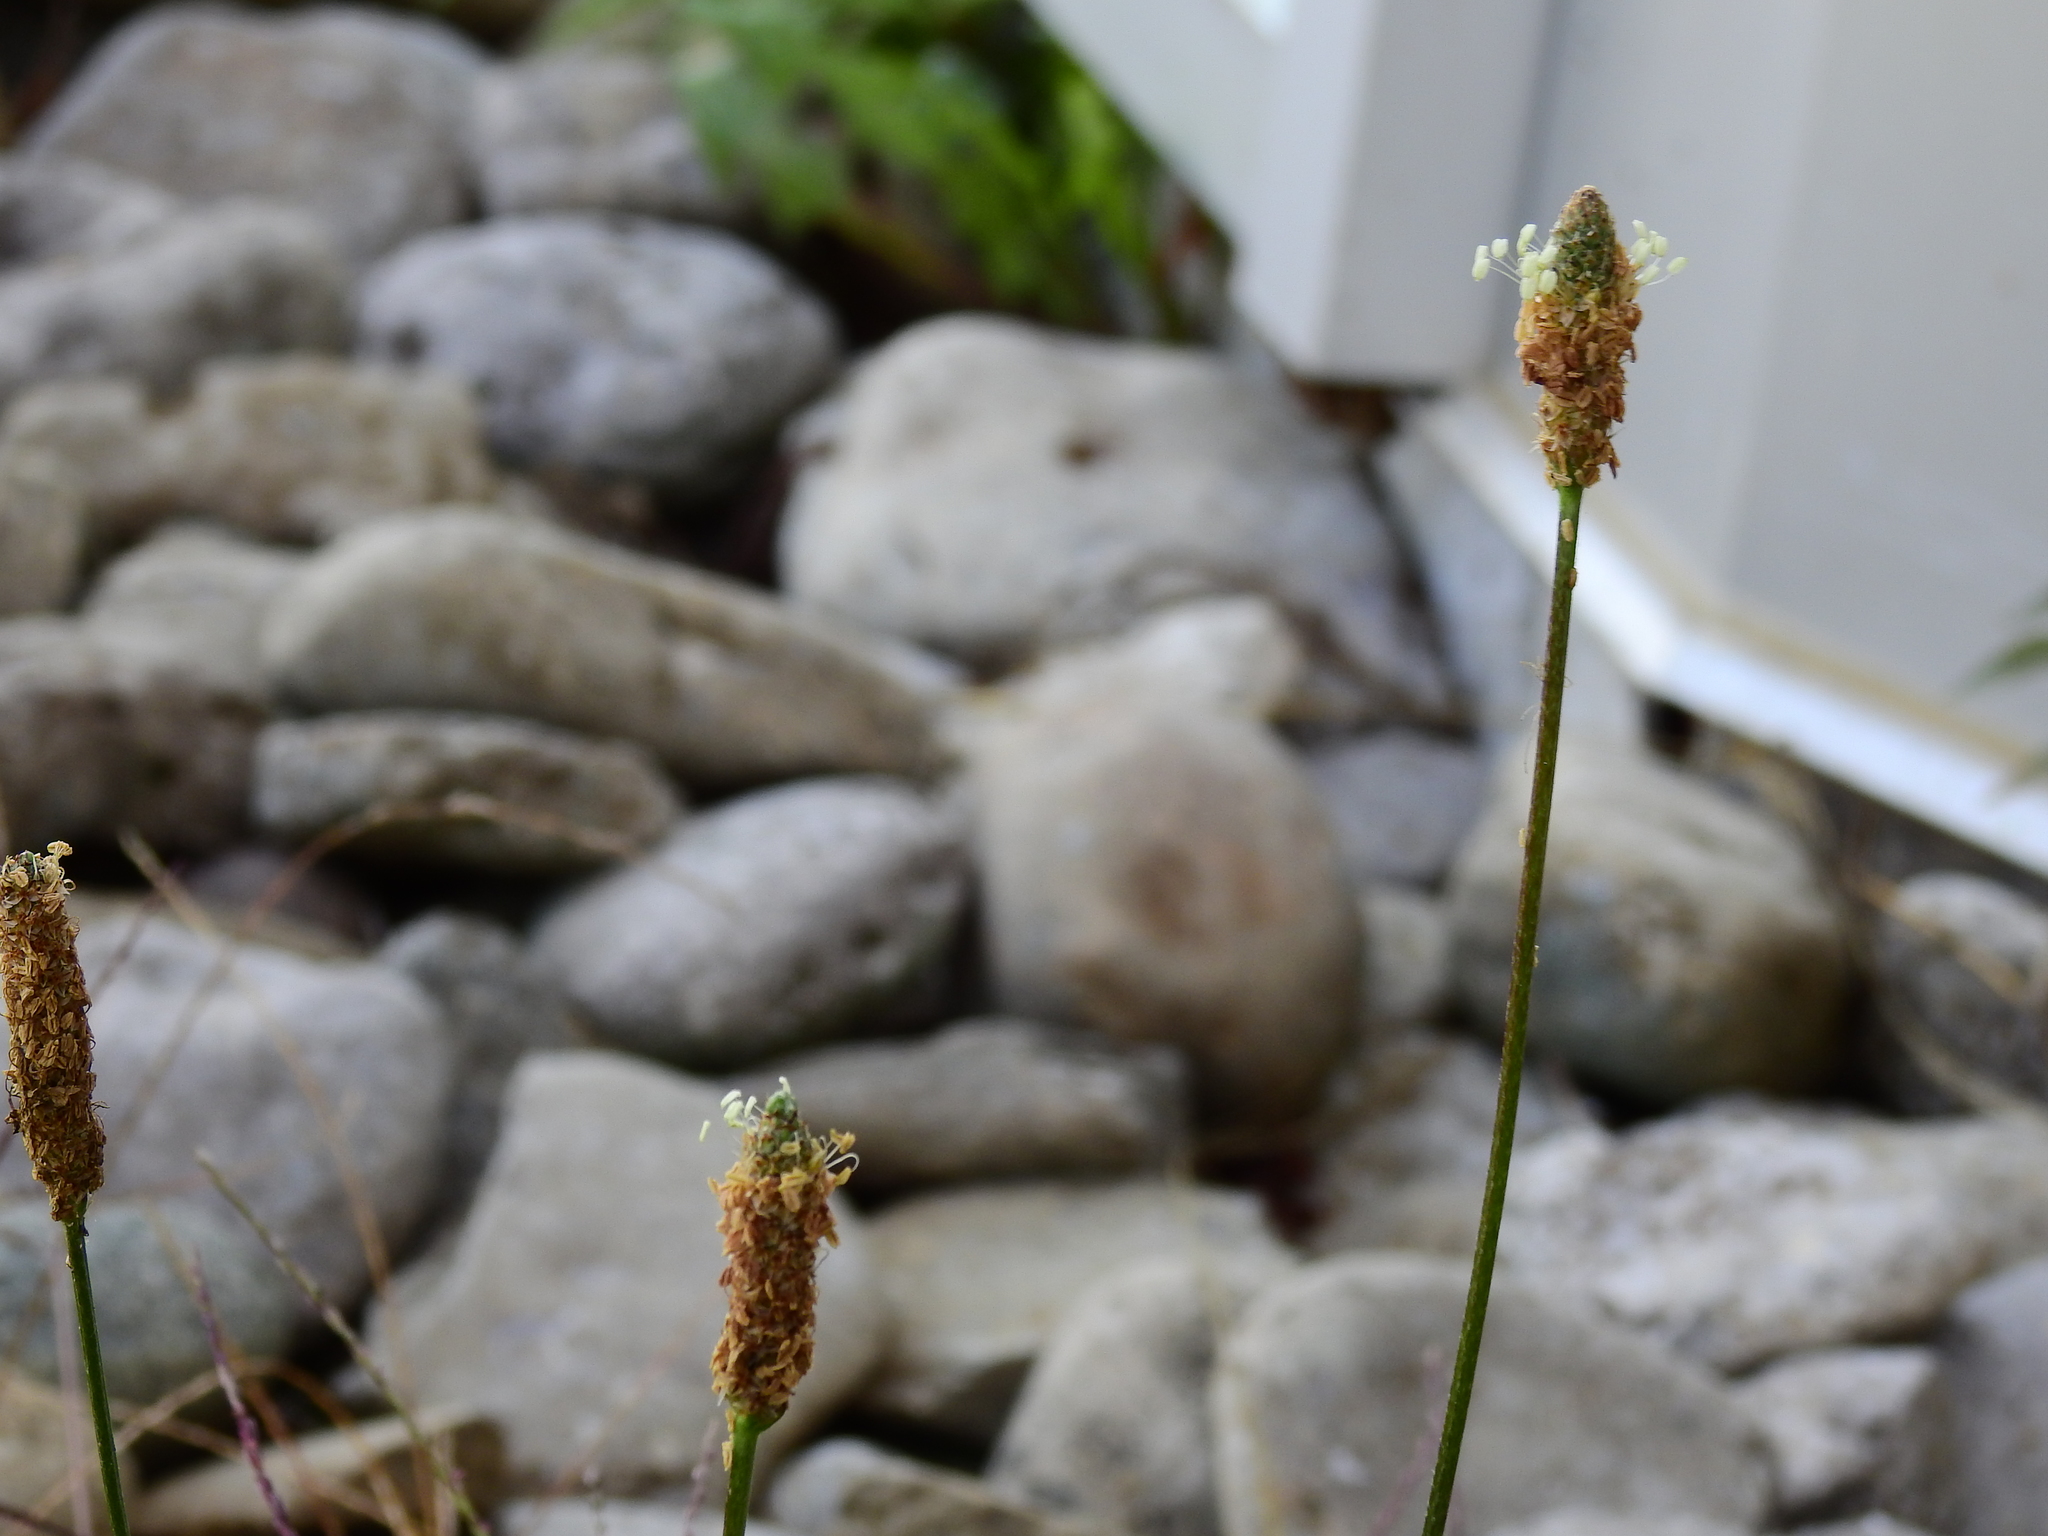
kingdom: Plantae
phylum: Tracheophyta
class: Magnoliopsida
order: Lamiales
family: Plantaginaceae
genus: Plantago
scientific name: Plantago lanceolata
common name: Ribwort plantain
